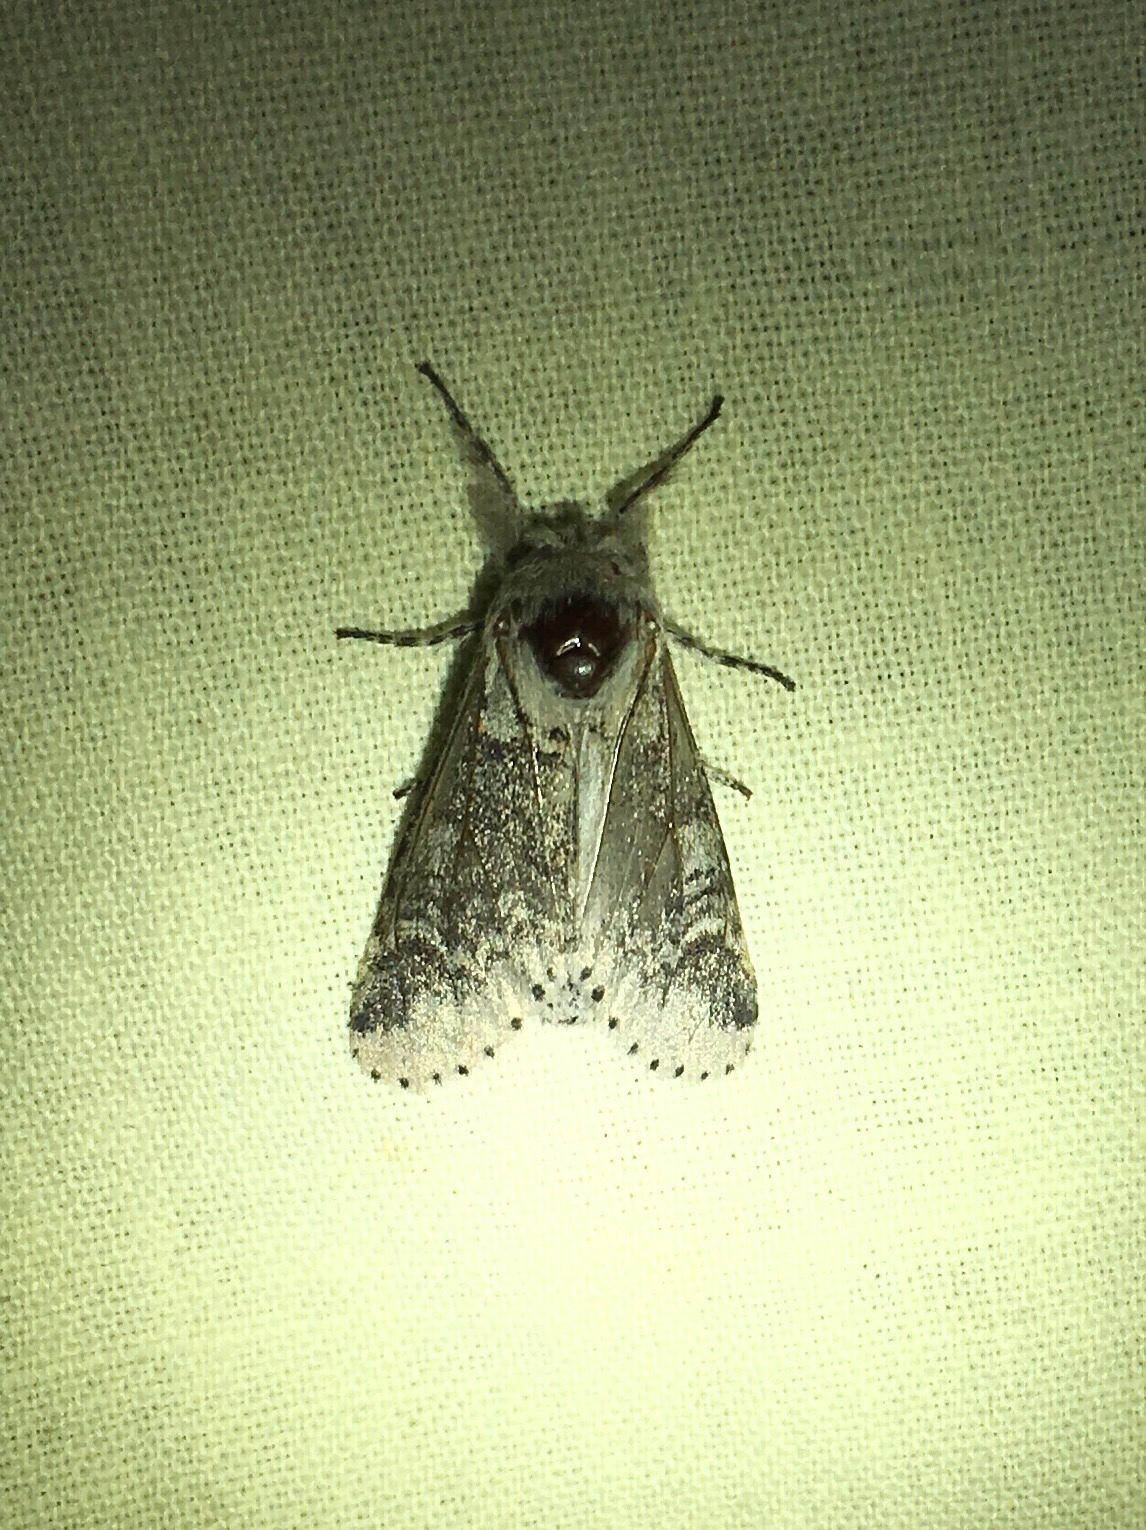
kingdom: Animalia
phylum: Arthropoda
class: Insecta
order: Lepidoptera
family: Notodontidae
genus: Furcula
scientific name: Furcula occidentalis
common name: Western furcula moth
